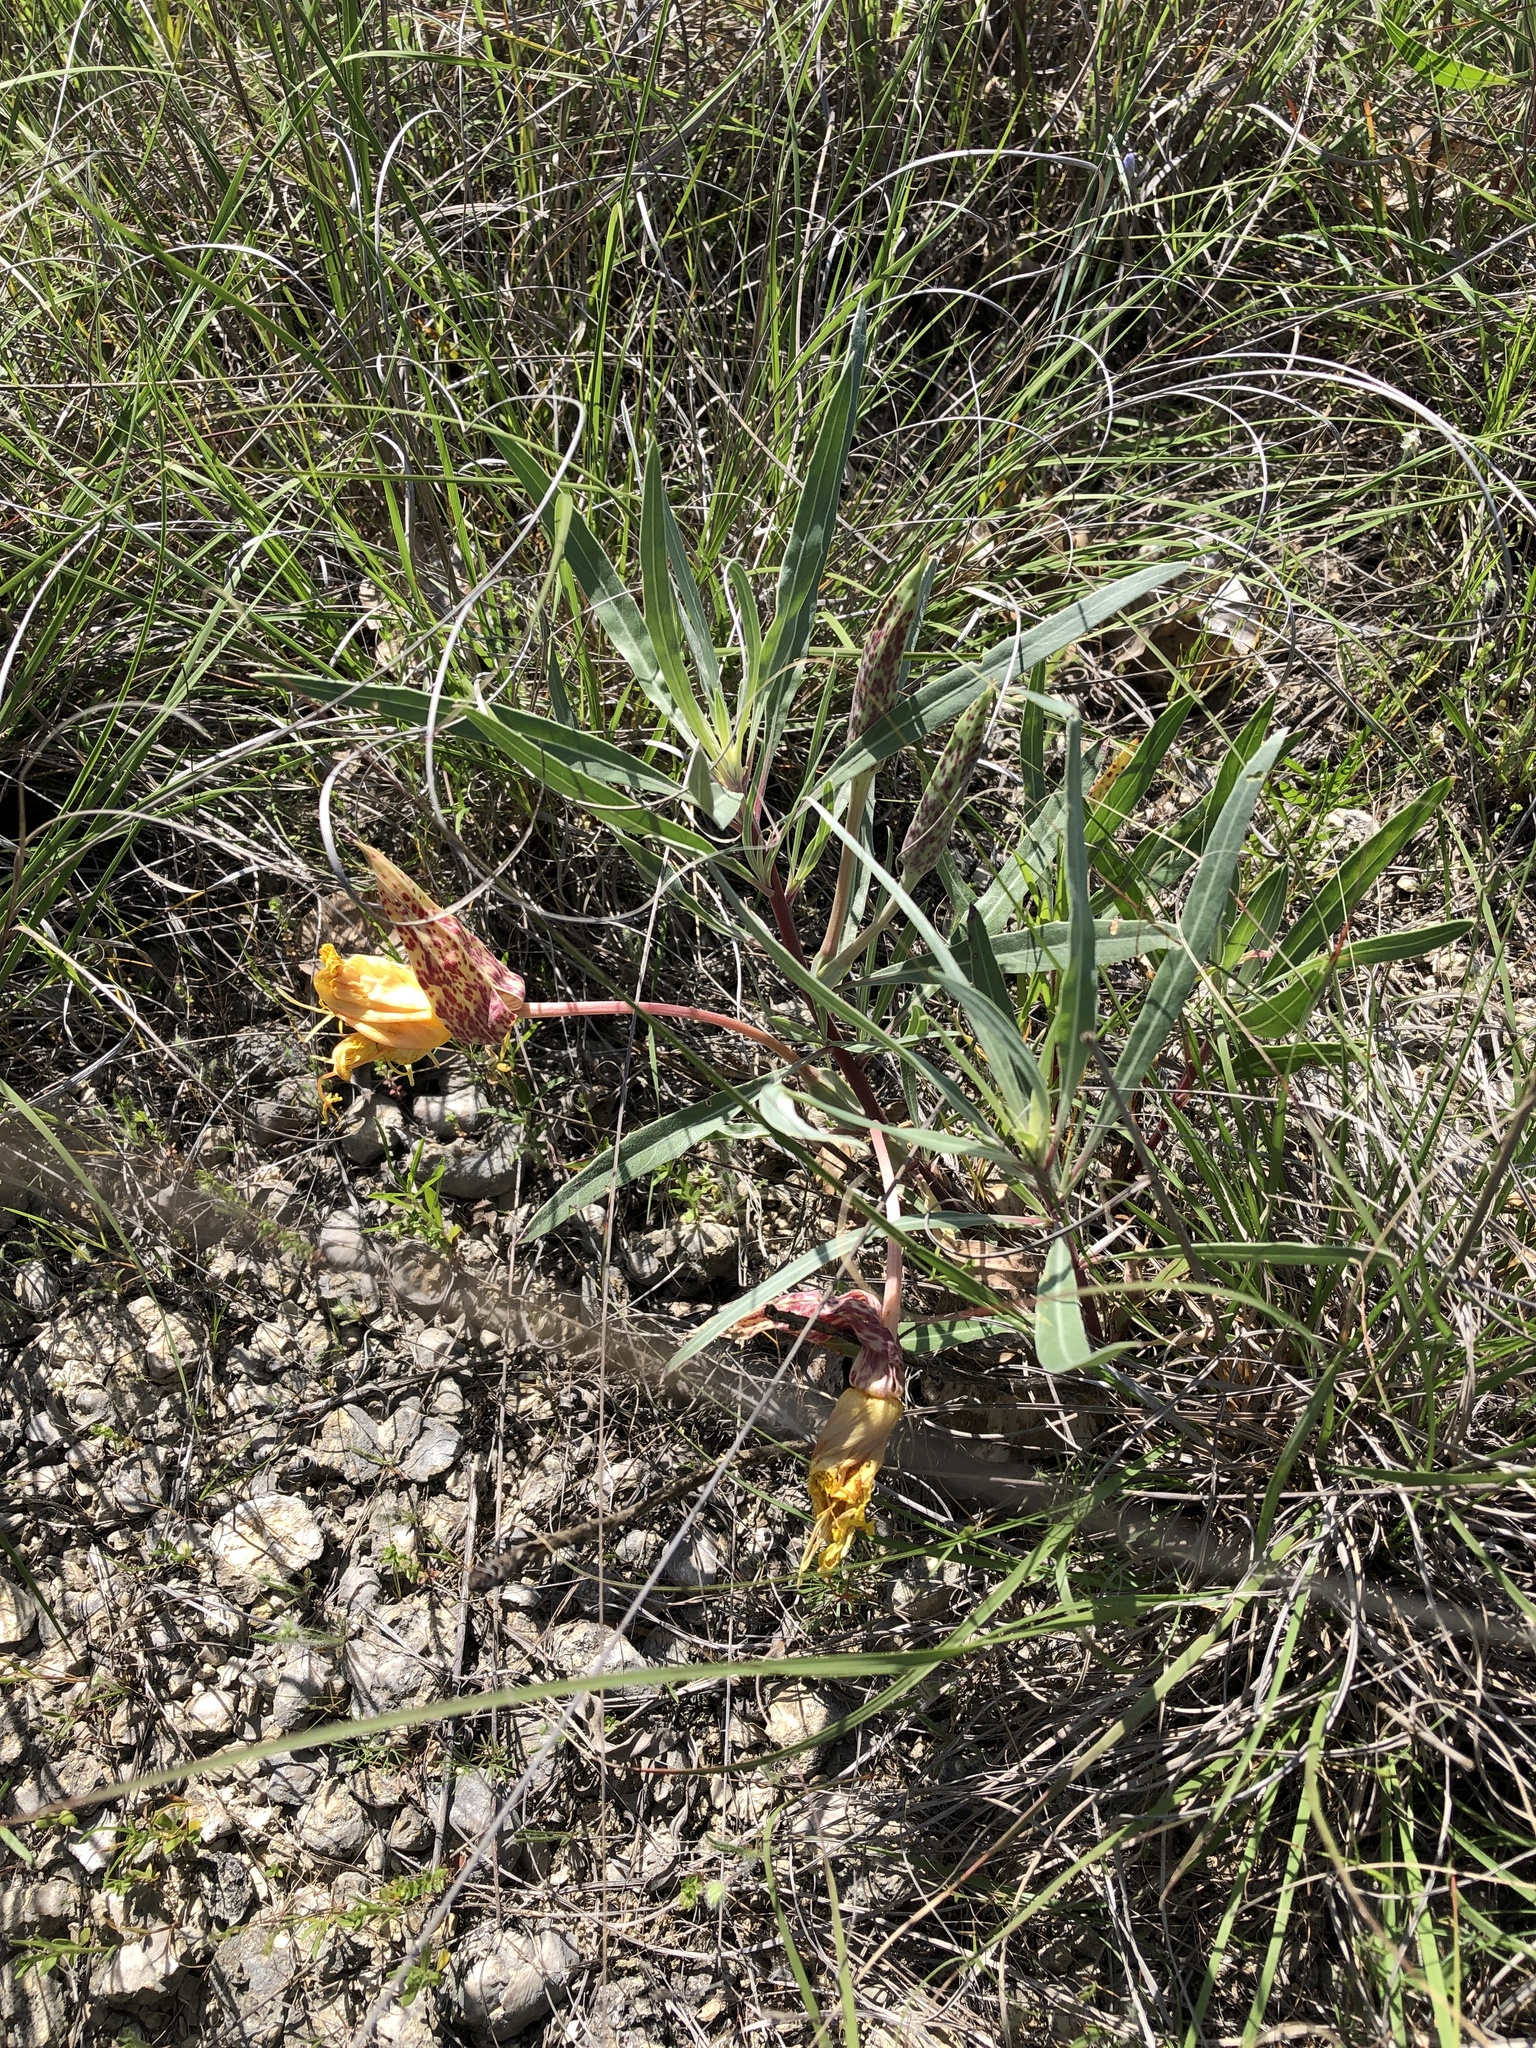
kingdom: Plantae
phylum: Tracheophyta
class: Magnoliopsida
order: Myrtales
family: Onagraceae
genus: Oenothera
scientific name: Oenothera macrocarpa
